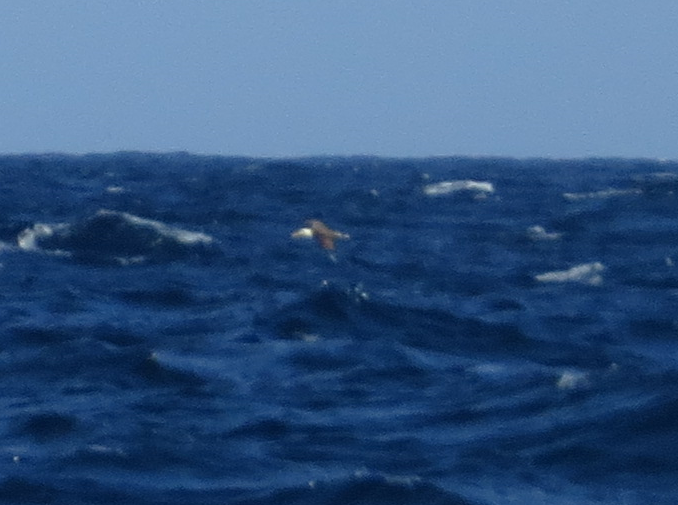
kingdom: Animalia
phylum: Chordata
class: Aves
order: Procellariiformes
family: Diomedeidae
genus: Phoebastria
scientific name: Phoebastria irrorata
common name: Waved albatross
